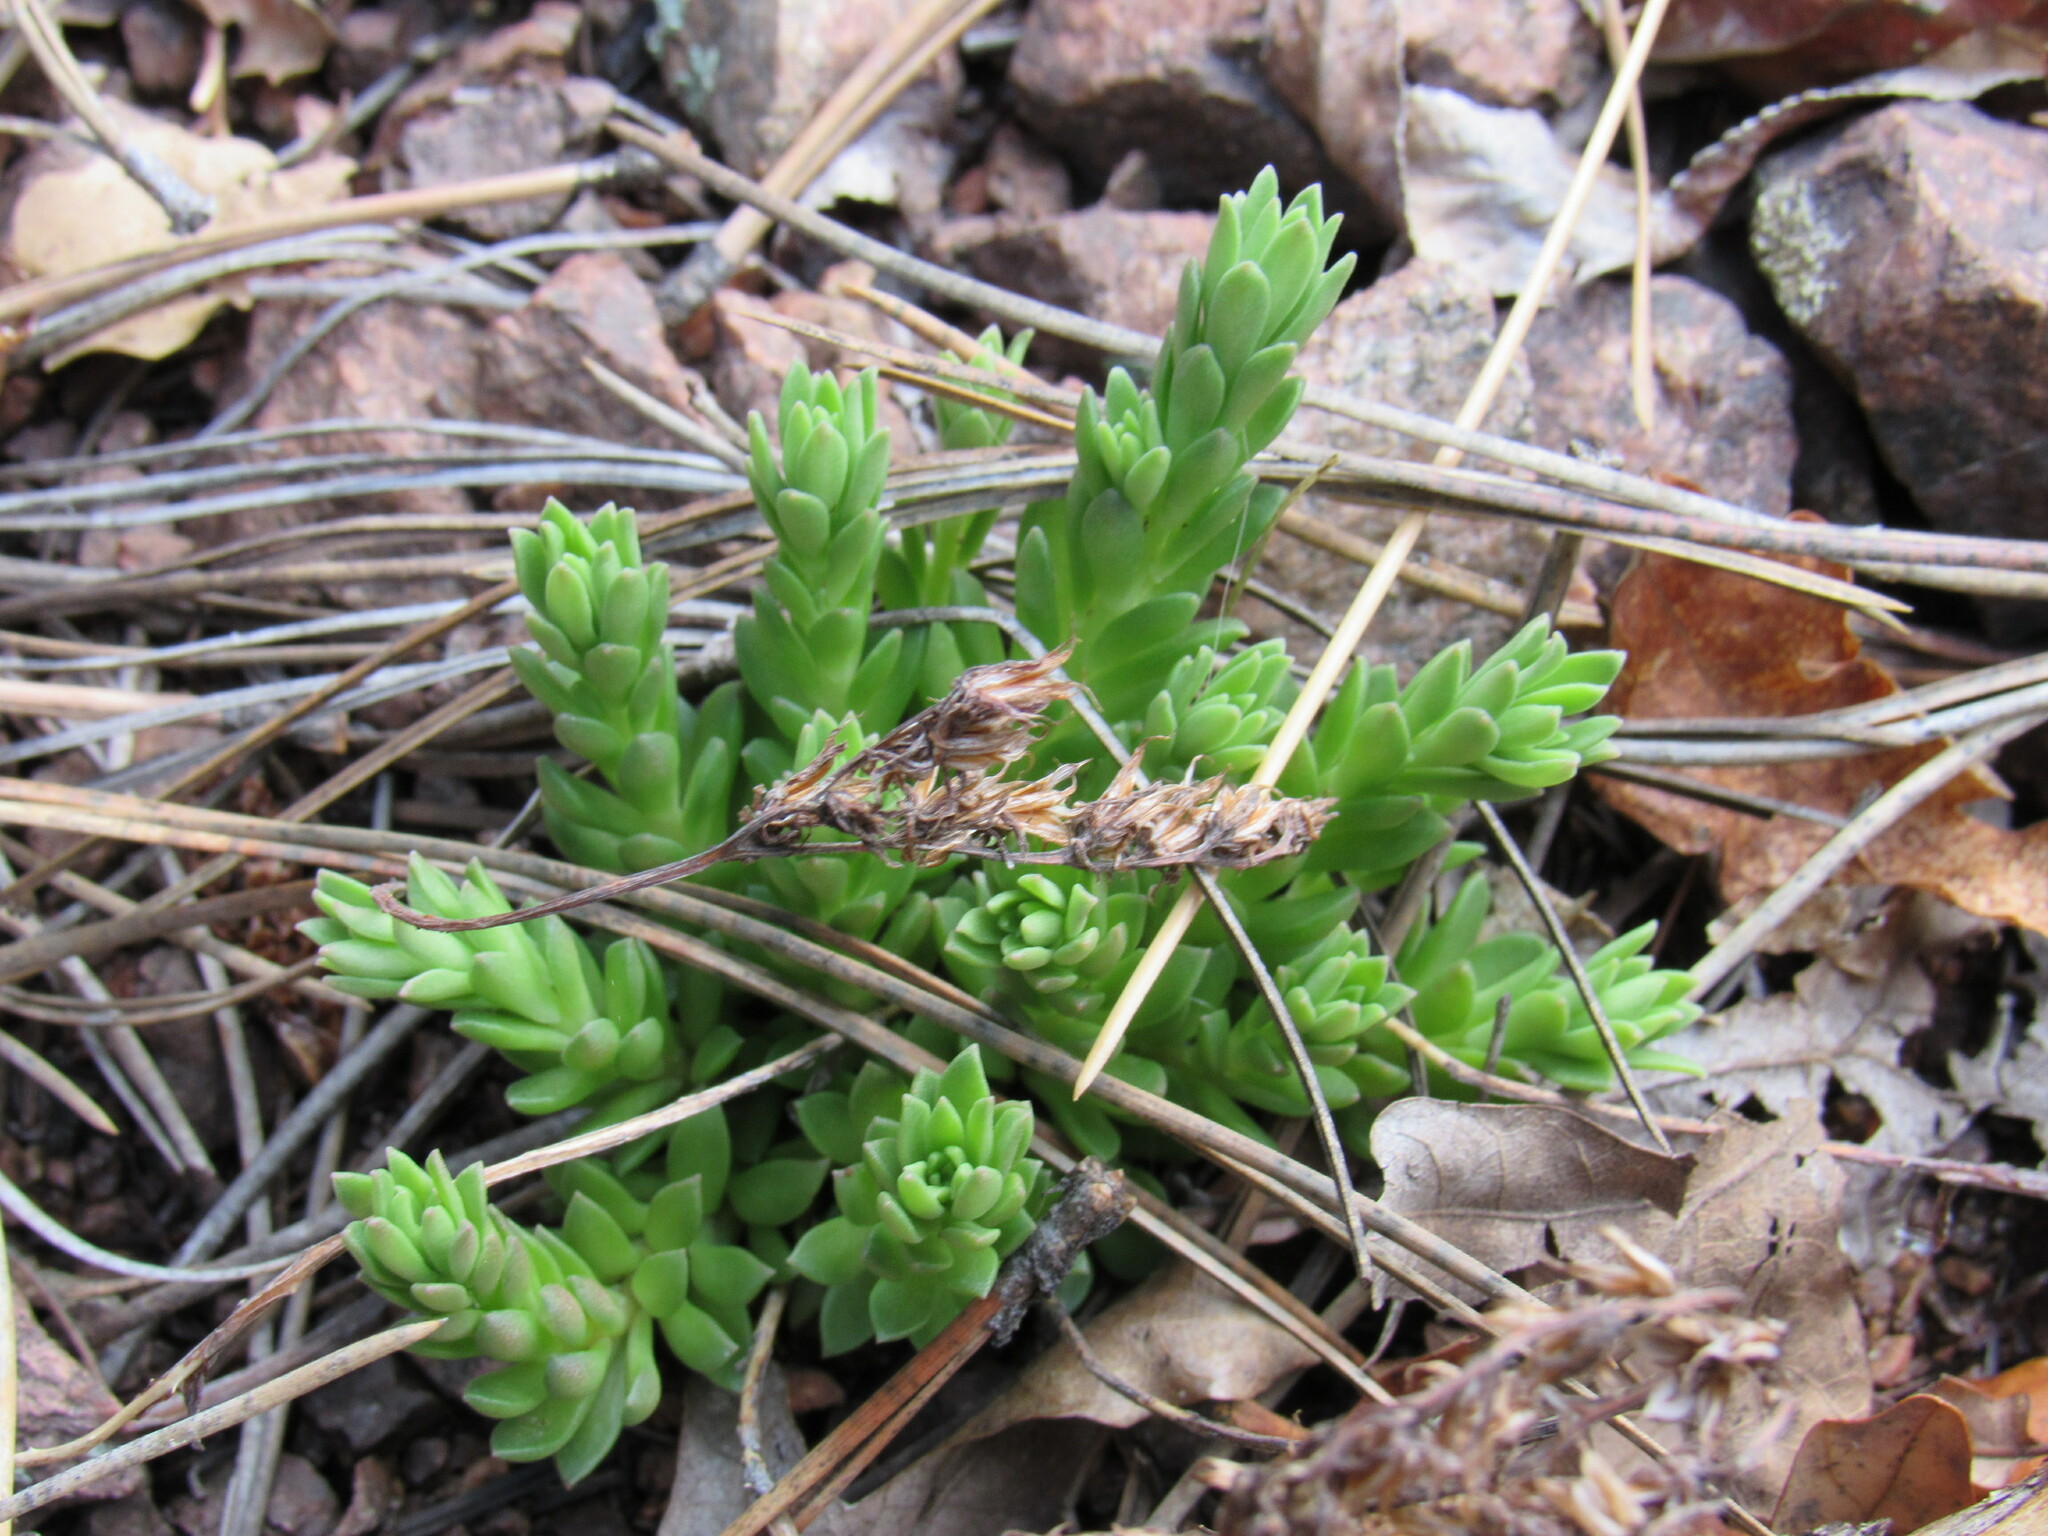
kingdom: Plantae
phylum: Tracheophyta
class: Magnoliopsida
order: Saxifragales
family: Crassulaceae
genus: Sedum
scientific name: Sedum cockerellii
